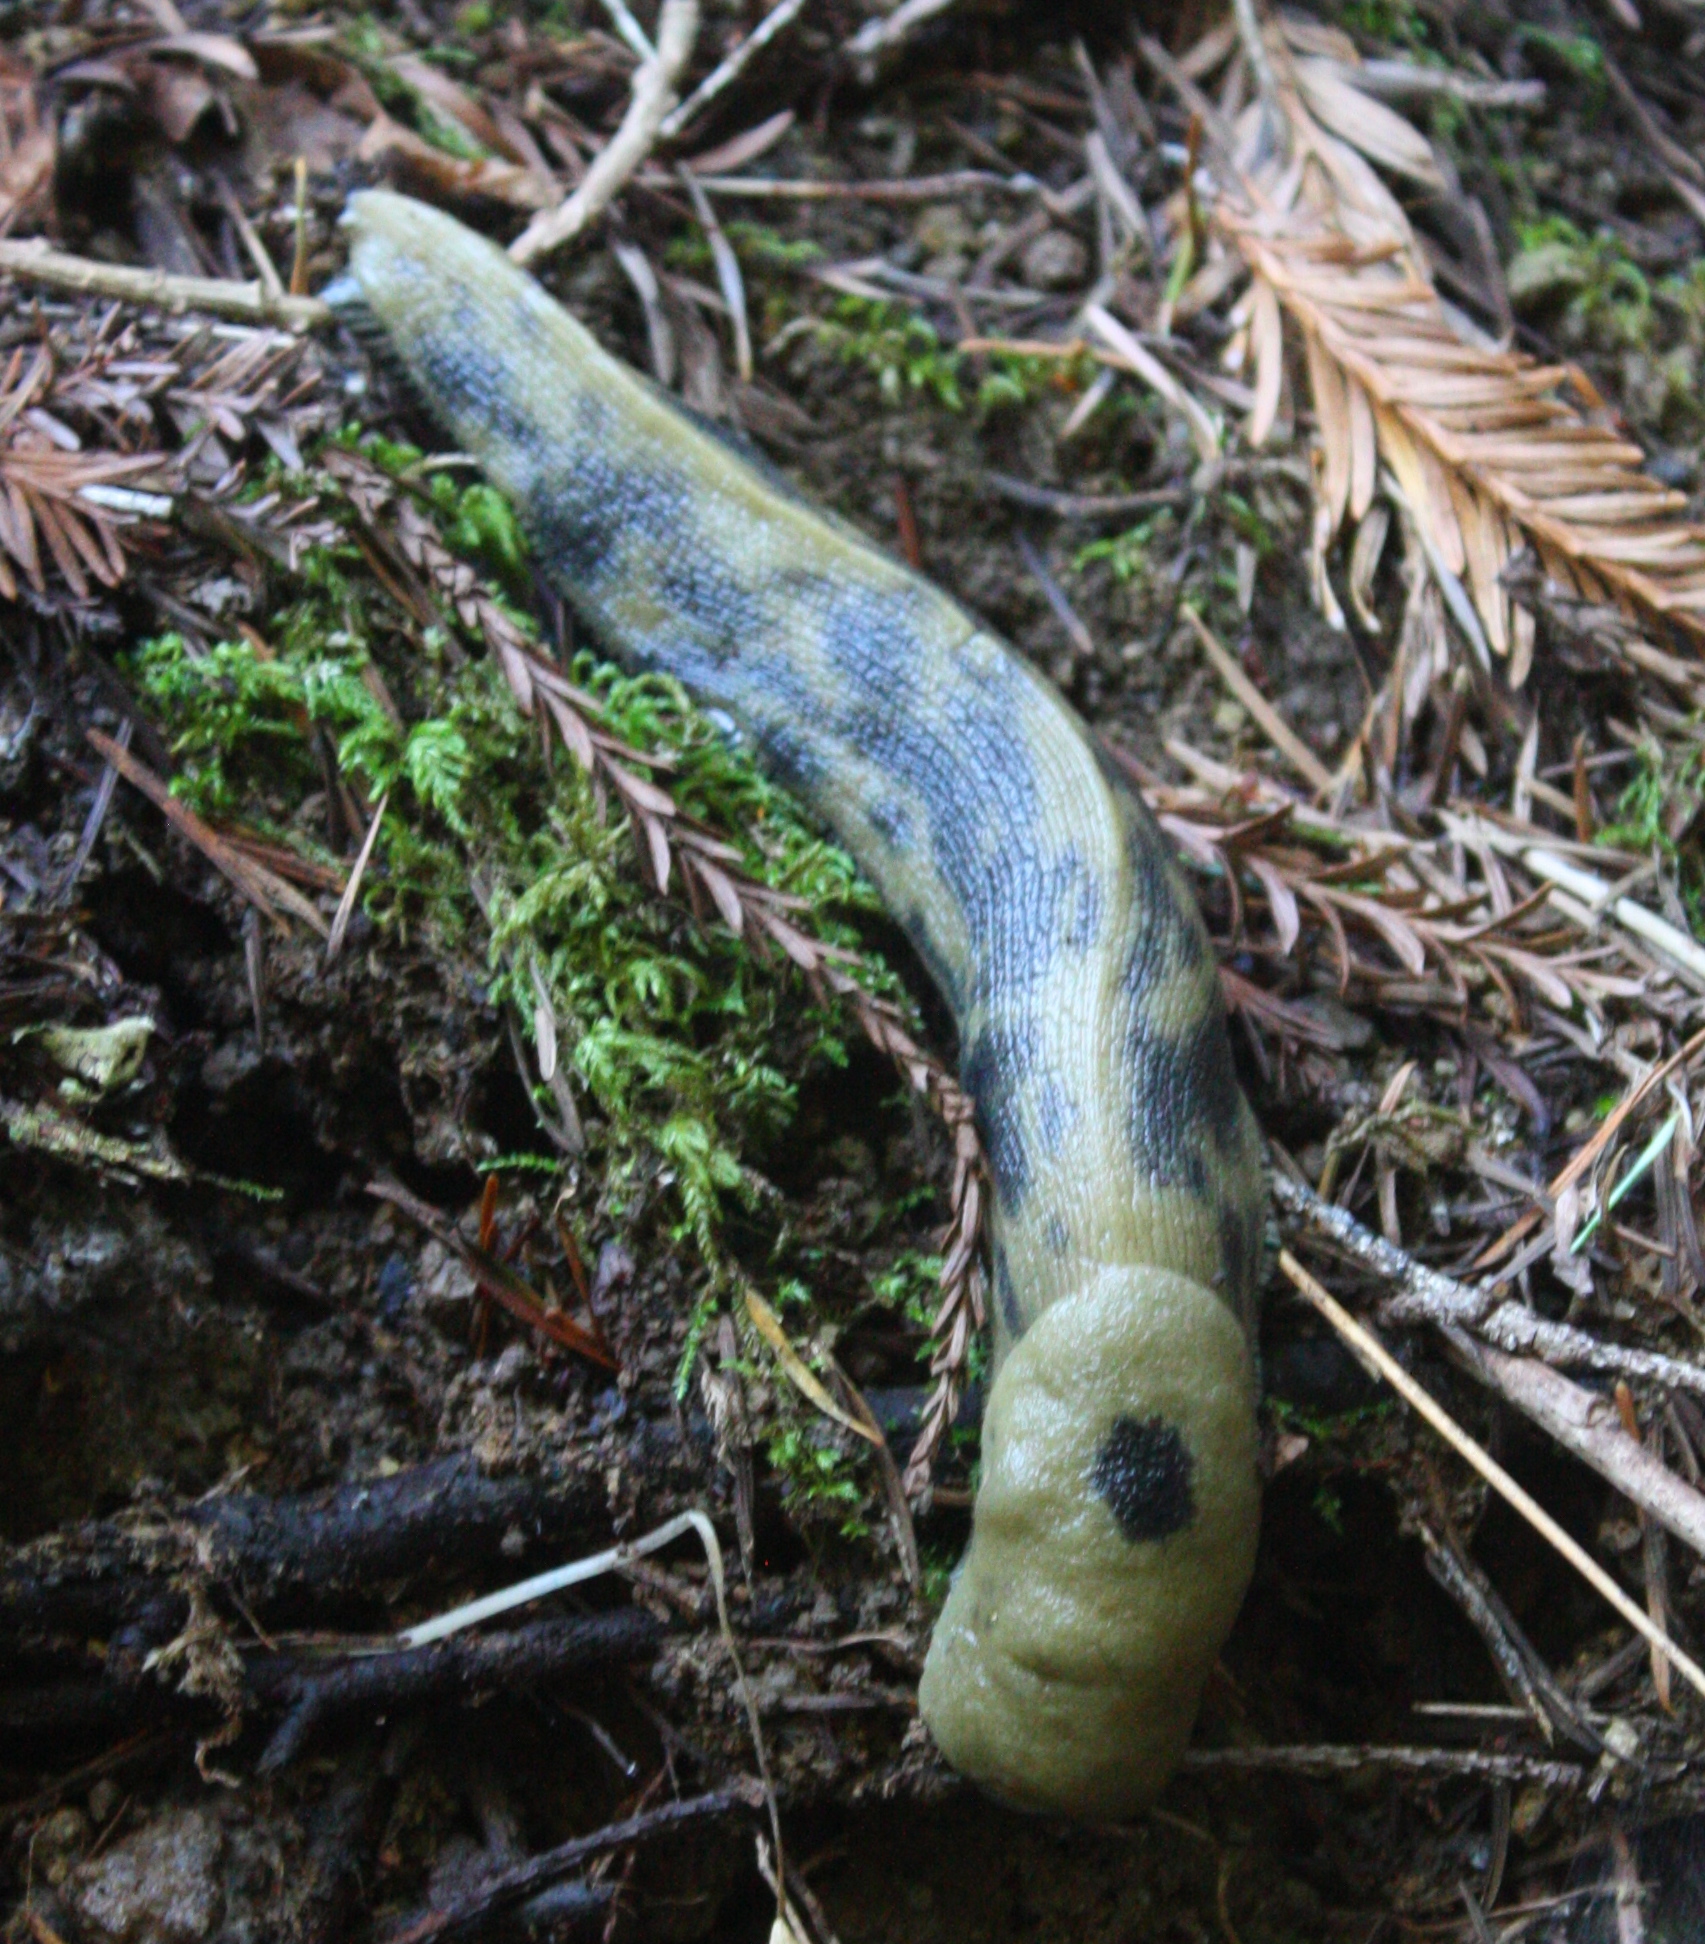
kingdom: Animalia
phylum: Mollusca
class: Gastropoda
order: Stylommatophora
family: Ariolimacidae
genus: Ariolimax
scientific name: Ariolimax buttoni
